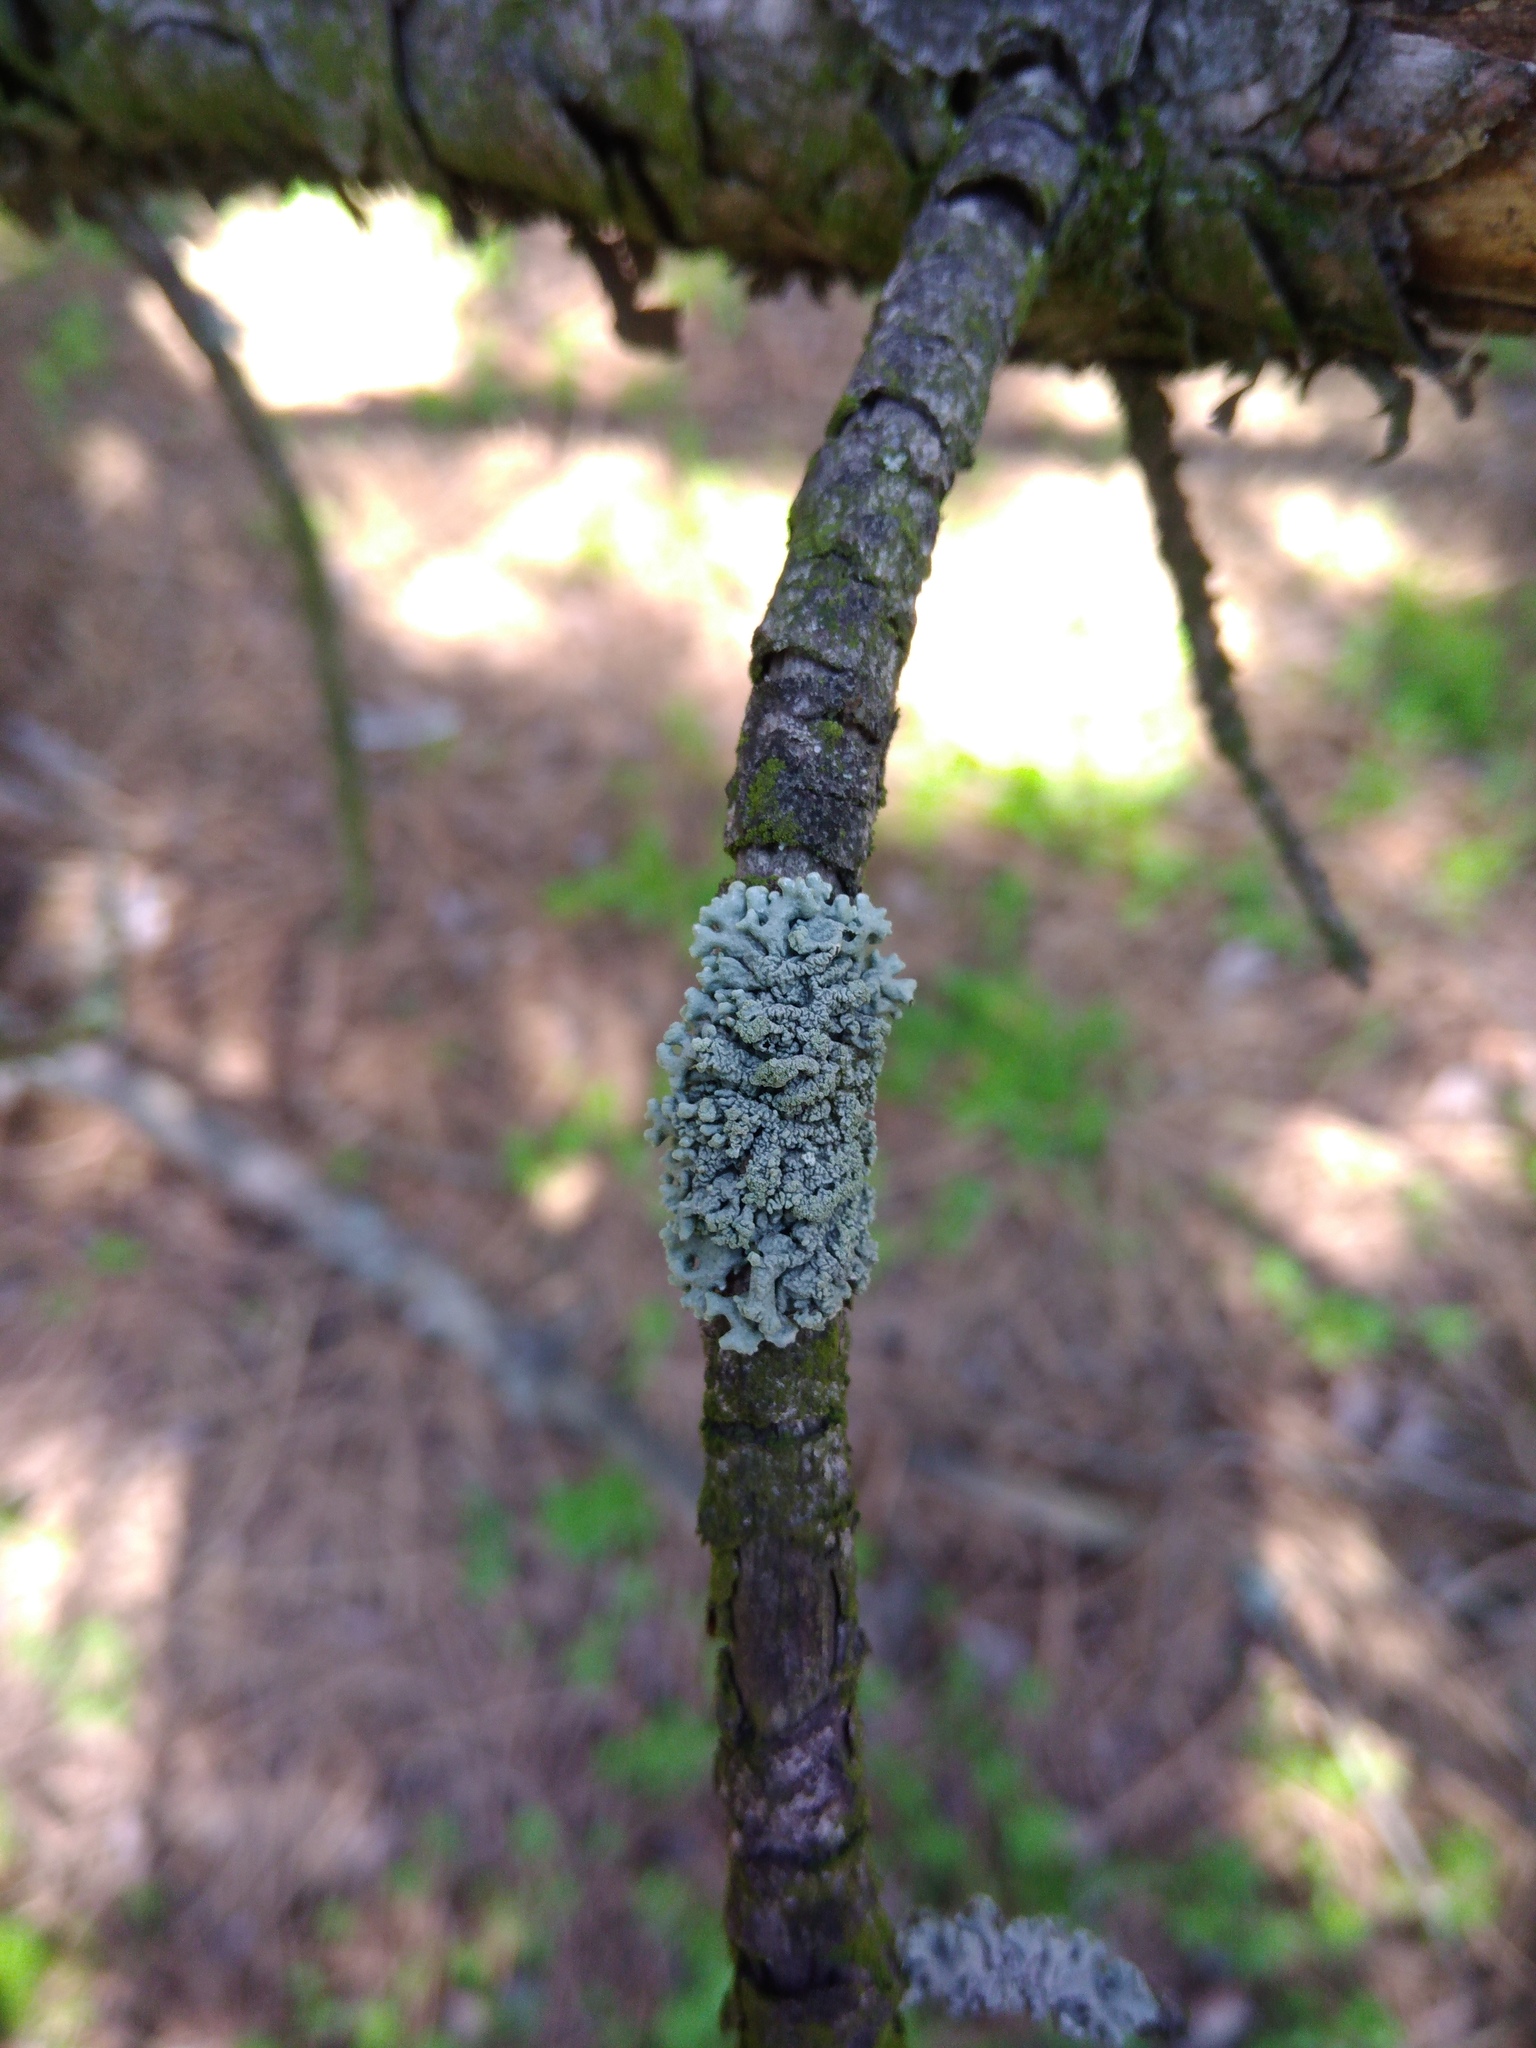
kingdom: Fungi
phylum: Ascomycota
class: Lecanoromycetes
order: Lecanorales
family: Parmeliaceae
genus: Hypogymnia
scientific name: Hypogymnia physodes
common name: Dark crottle
